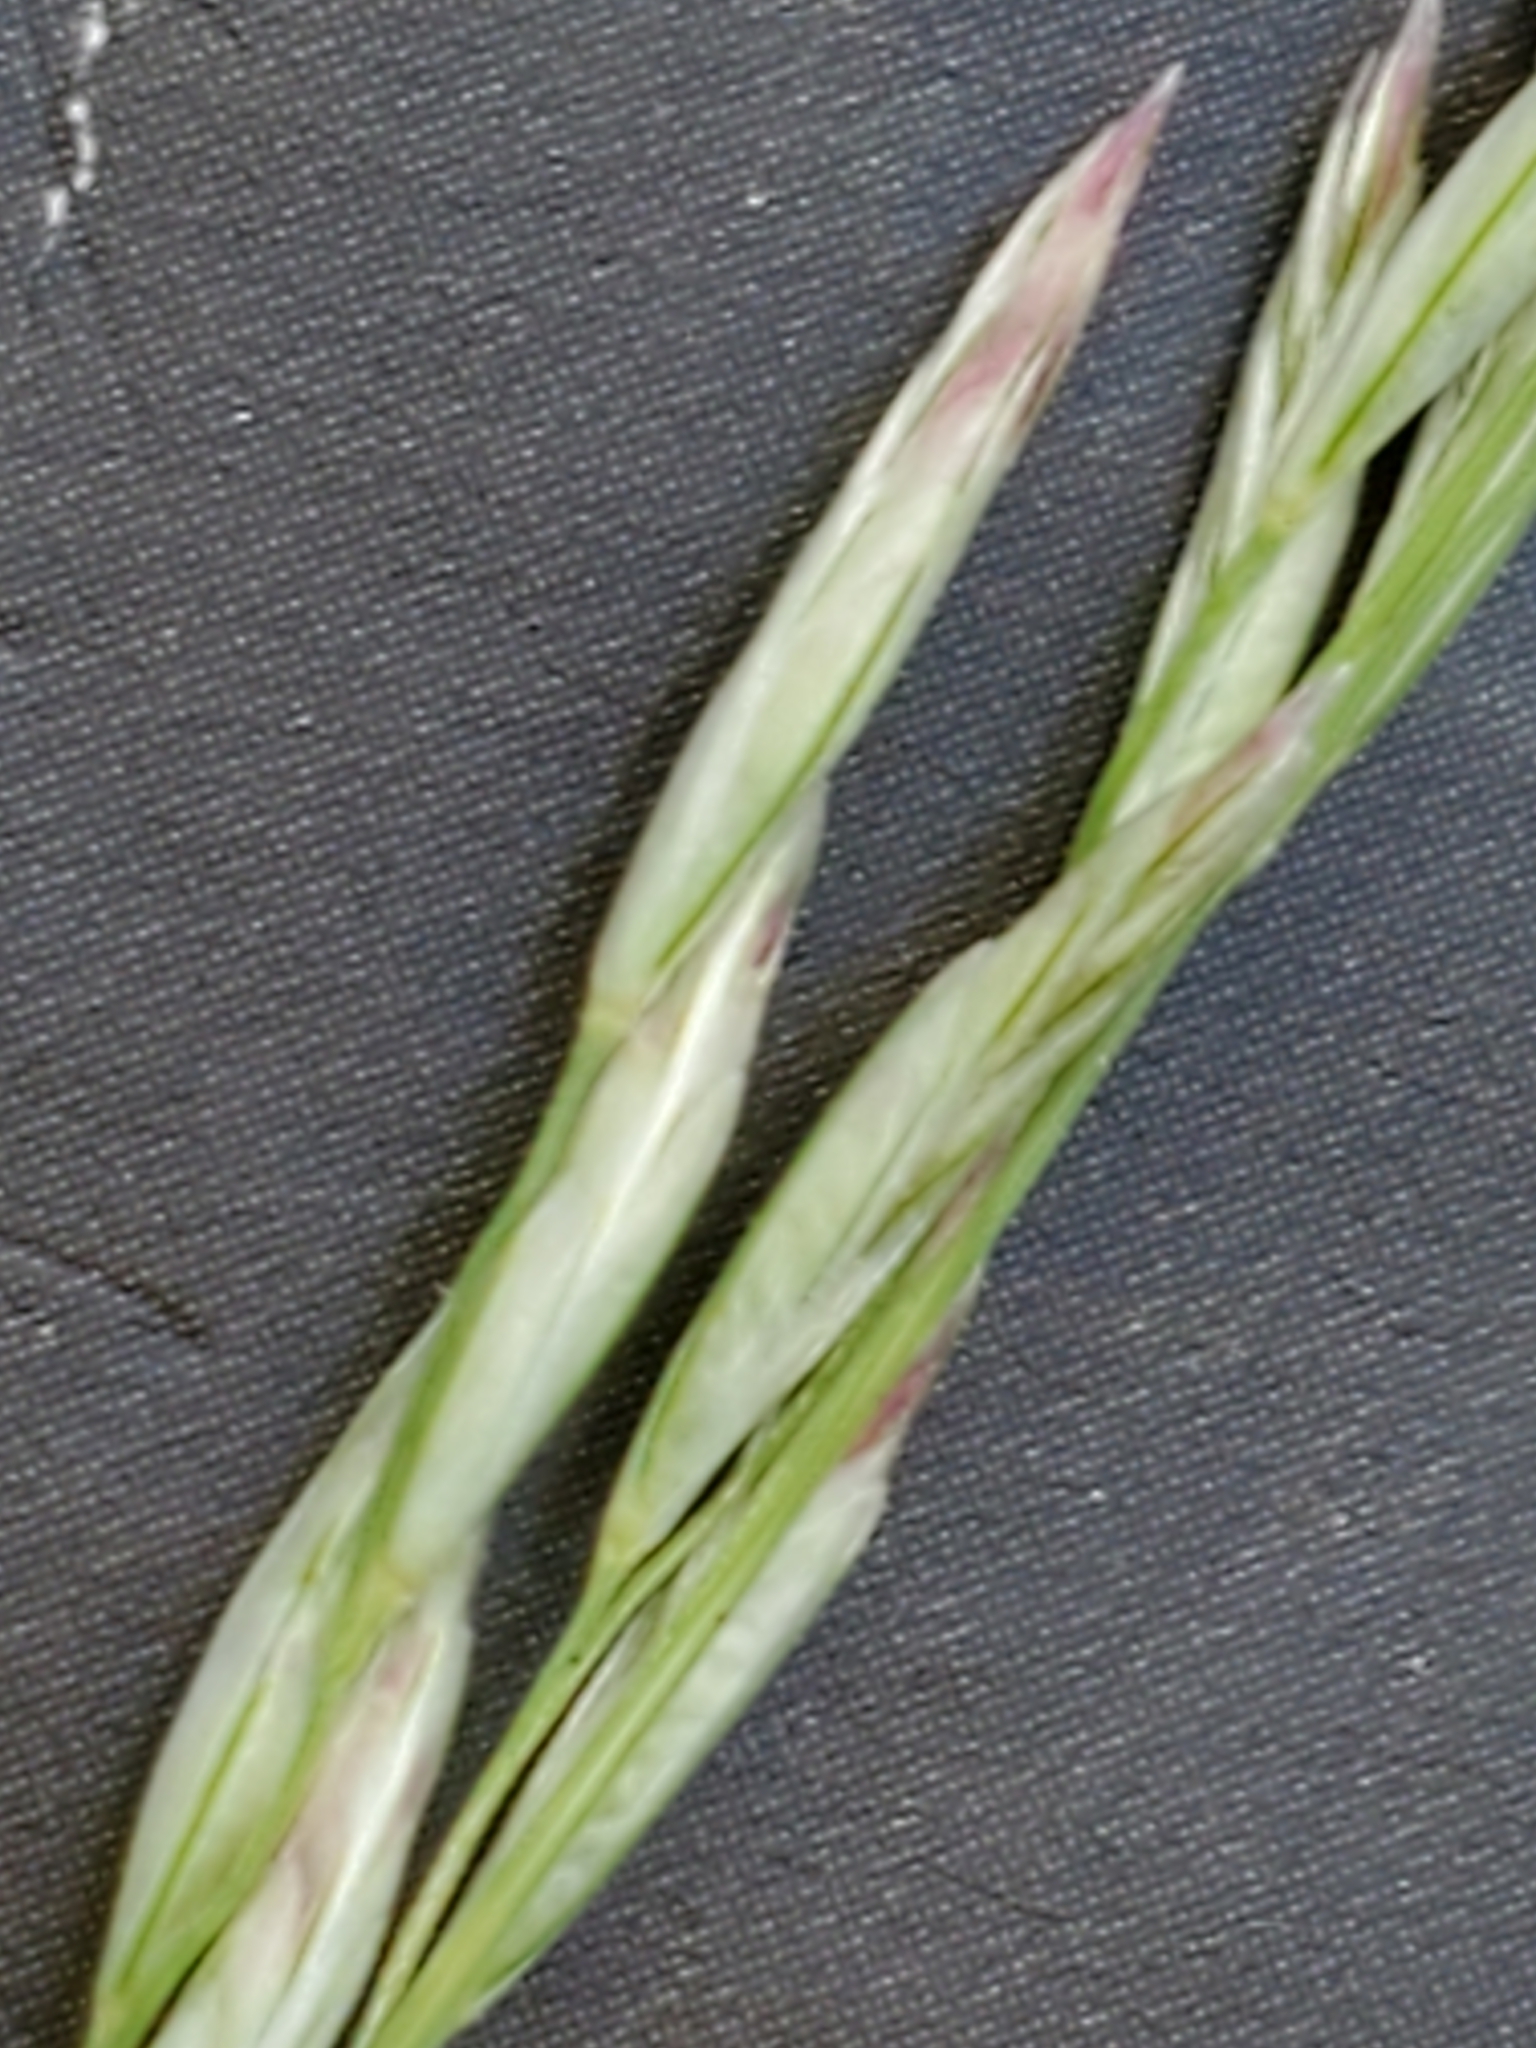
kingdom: Plantae
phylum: Tracheophyta
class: Liliopsida
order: Poales
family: Poaceae
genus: Tridentopsis
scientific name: Tridentopsis mutica
